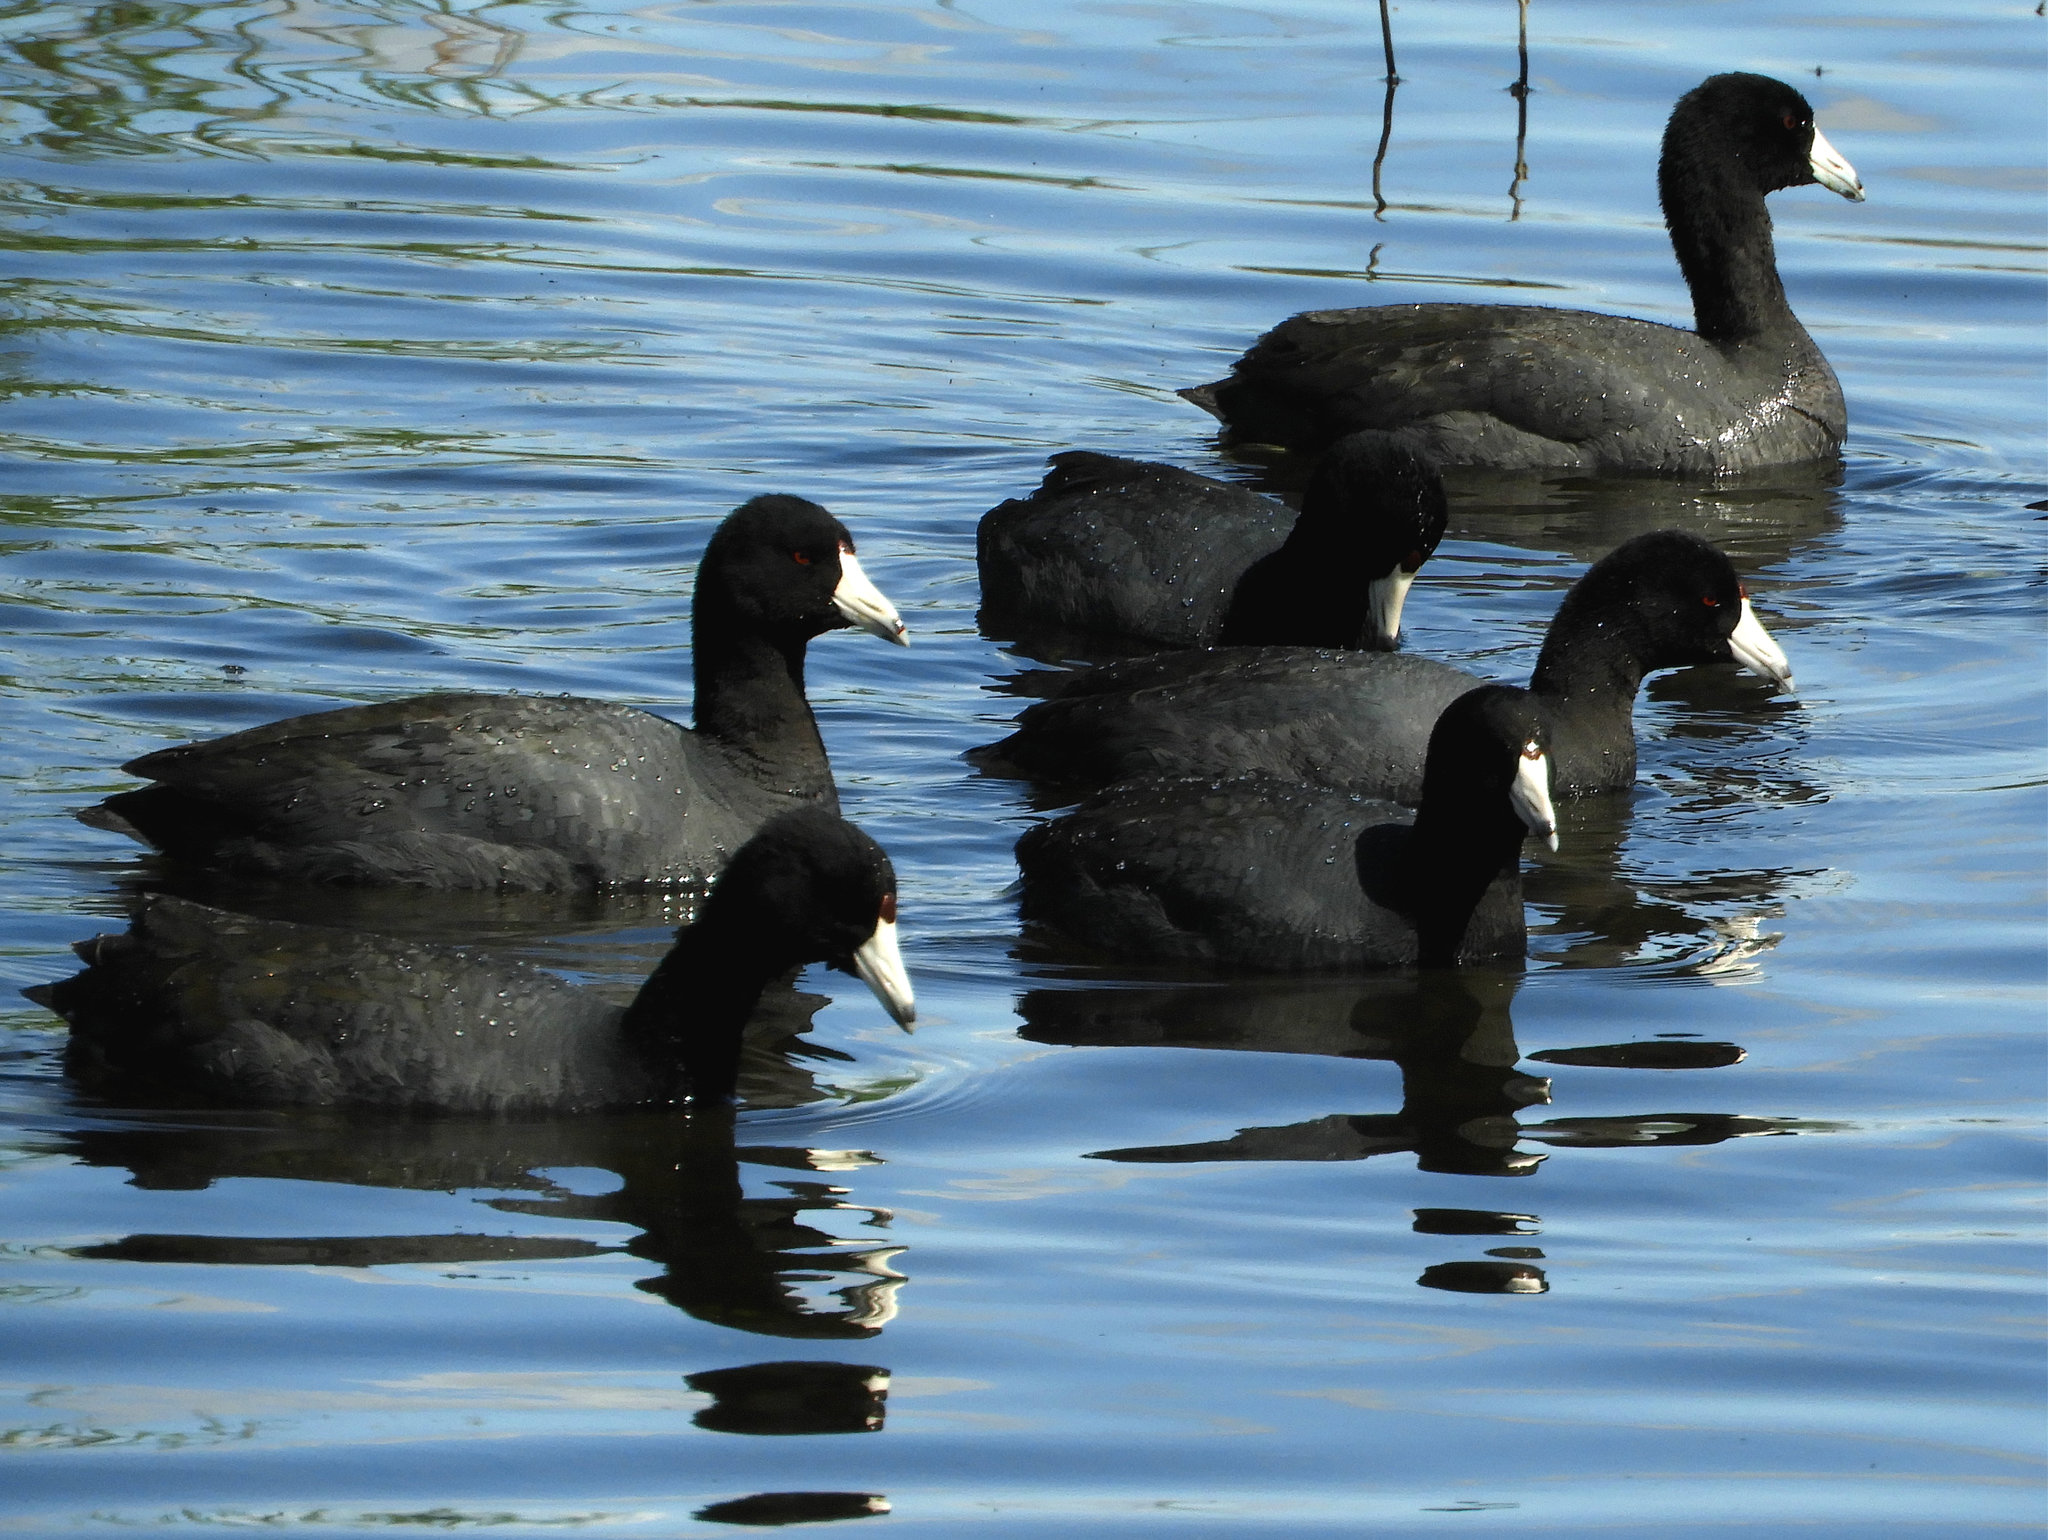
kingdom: Animalia
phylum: Chordata
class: Aves
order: Gruiformes
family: Rallidae
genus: Fulica
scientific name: Fulica americana
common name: American coot
